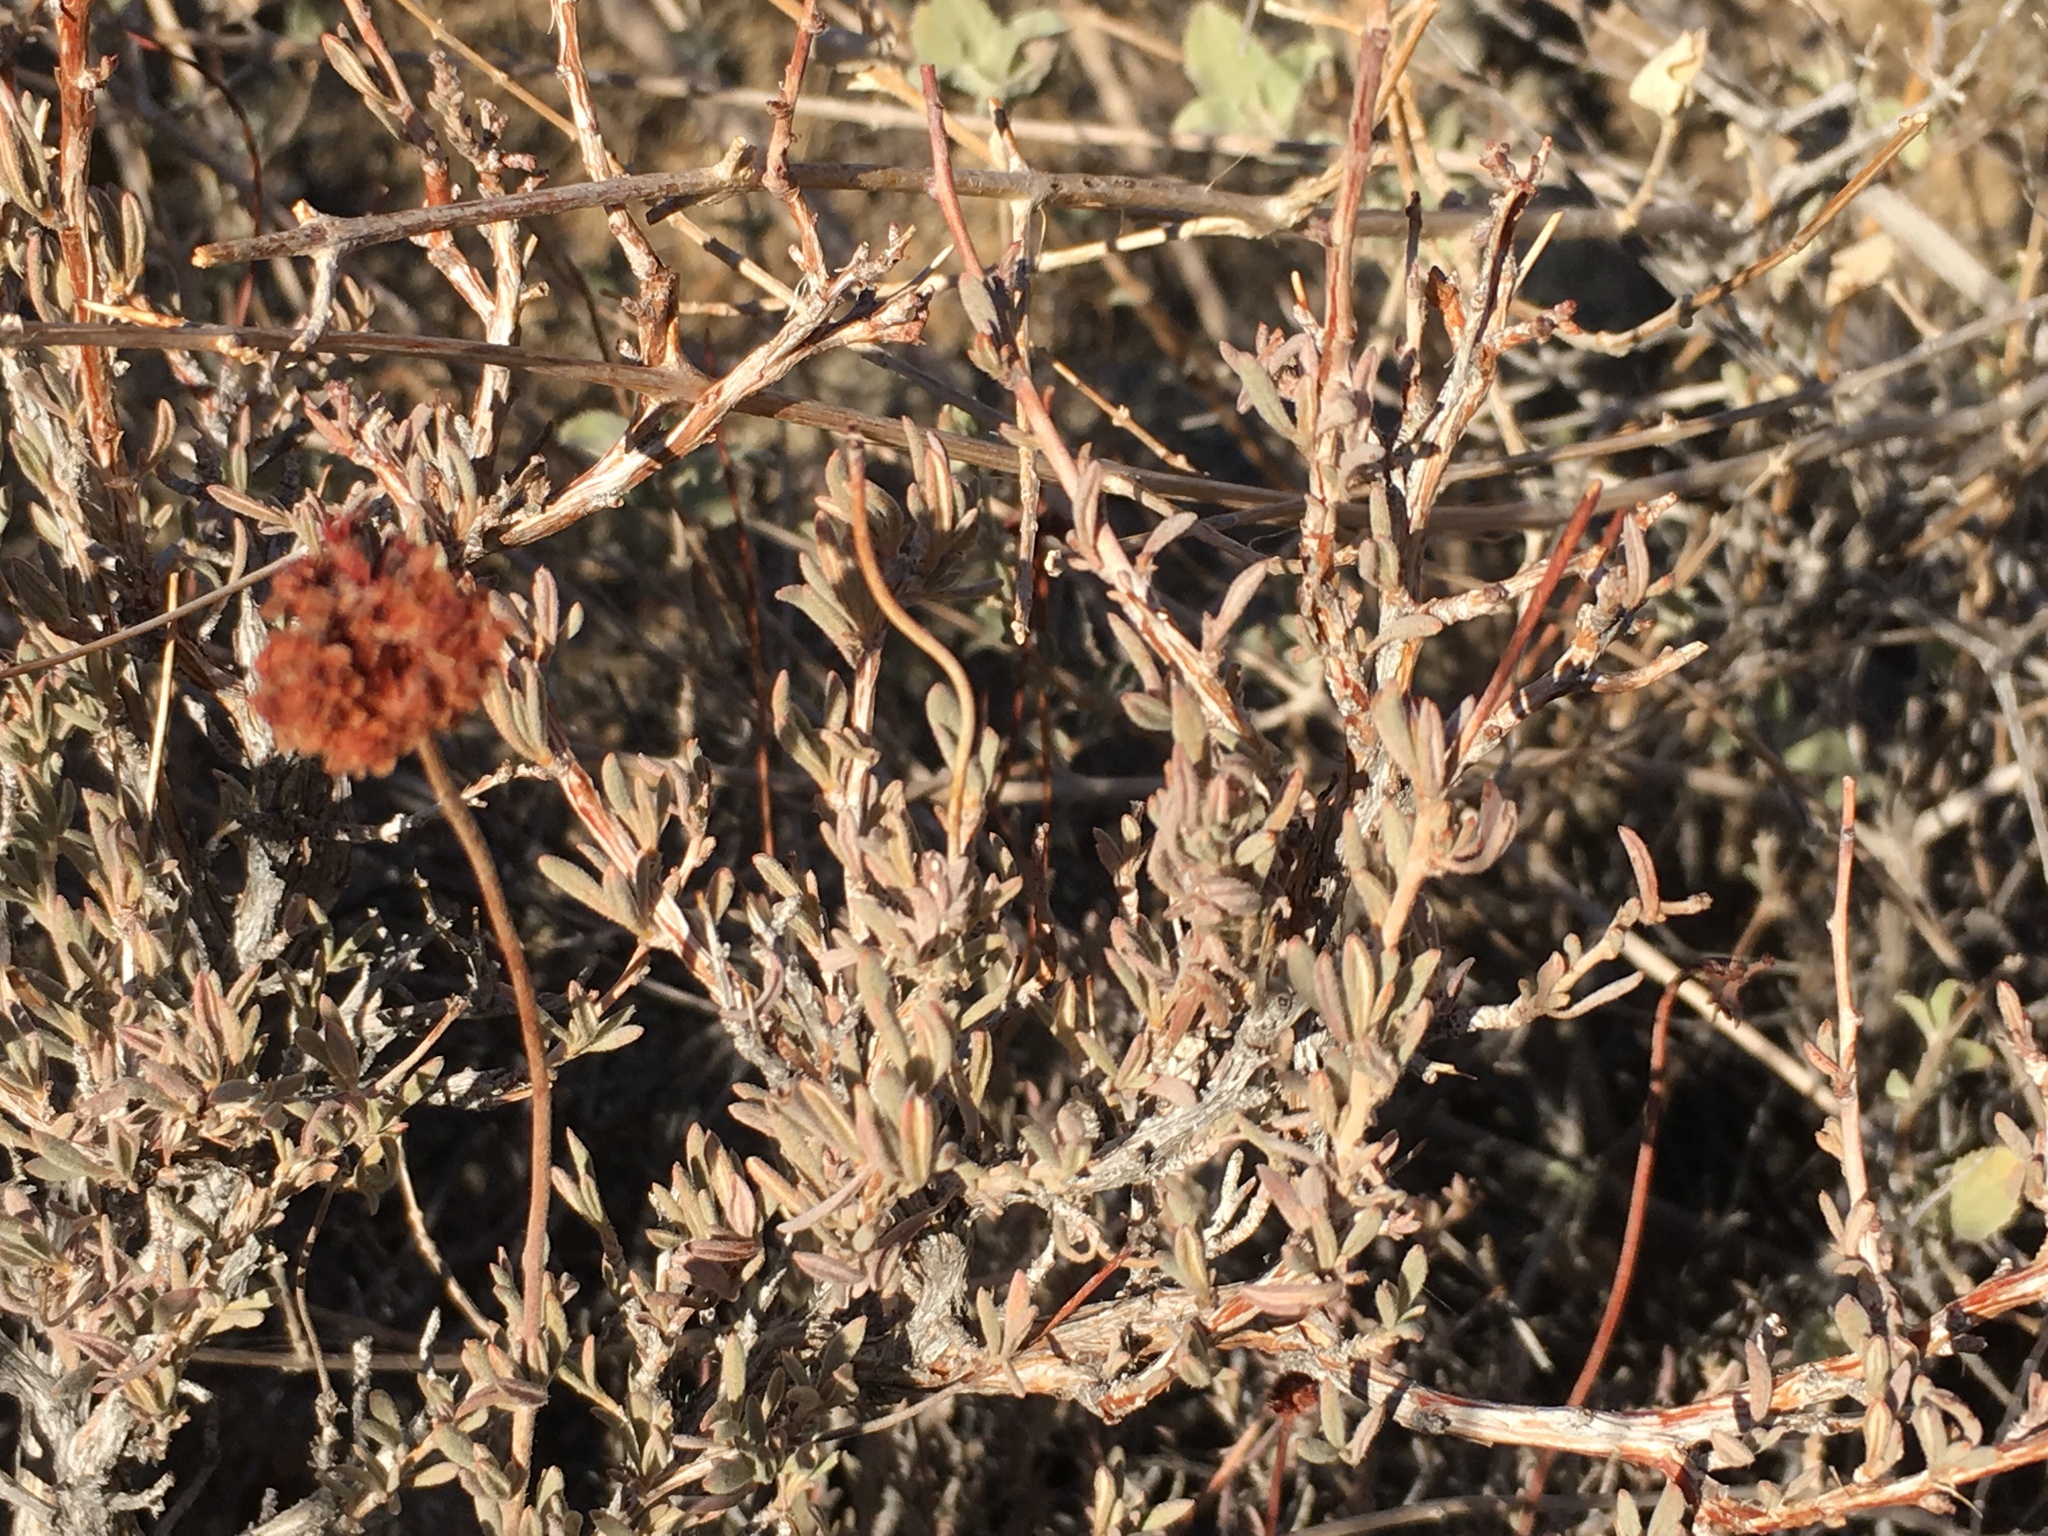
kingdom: Plantae
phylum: Tracheophyta
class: Magnoliopsida
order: Caryophyllales
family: Polygonaceae
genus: Eriogonum
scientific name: Eriogonum fasciculatum
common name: California wild buckwheat
